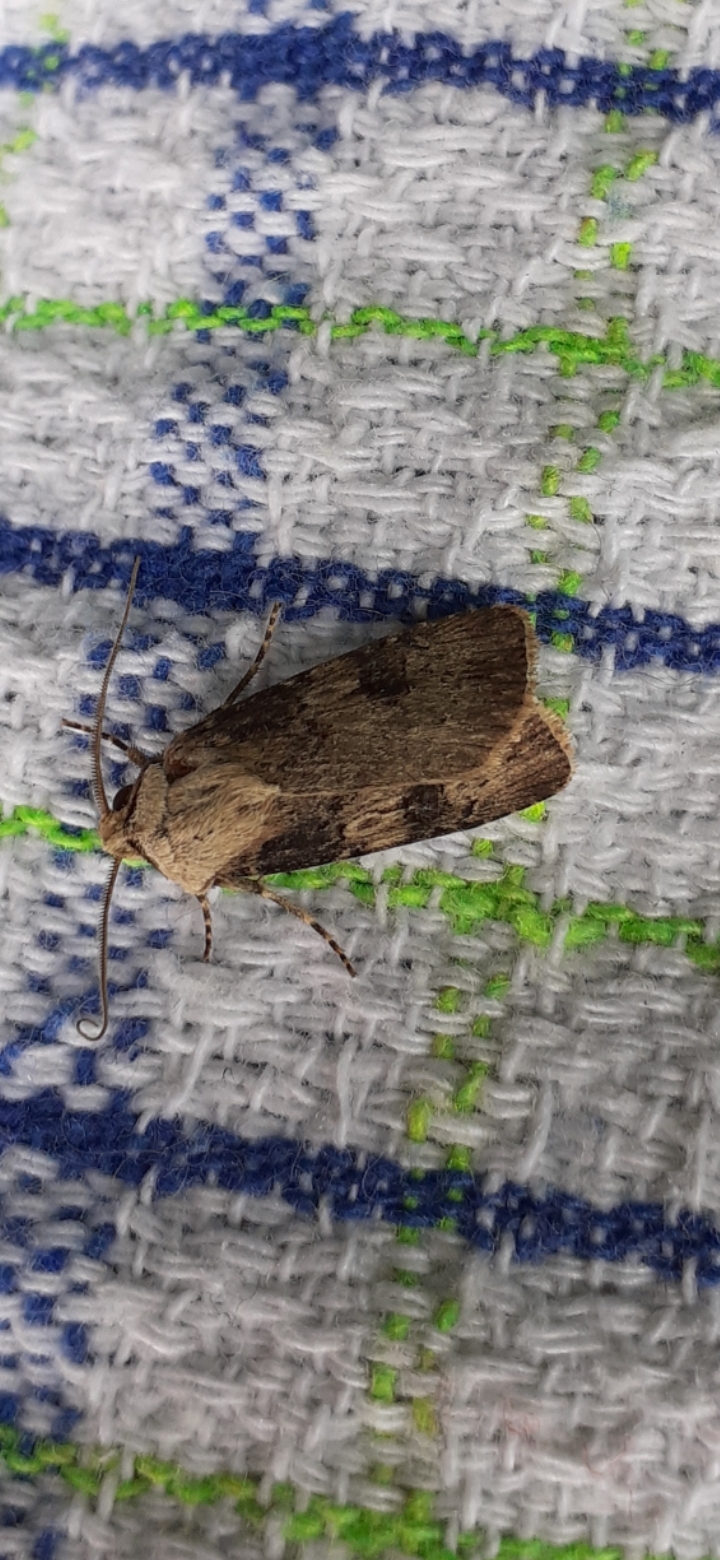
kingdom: Animalia
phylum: Arthropoda
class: Insecta
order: Lepidoptera
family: Noctuidae
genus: Agrotis
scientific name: Agrotis puta
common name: Shuttle-shaped dart
